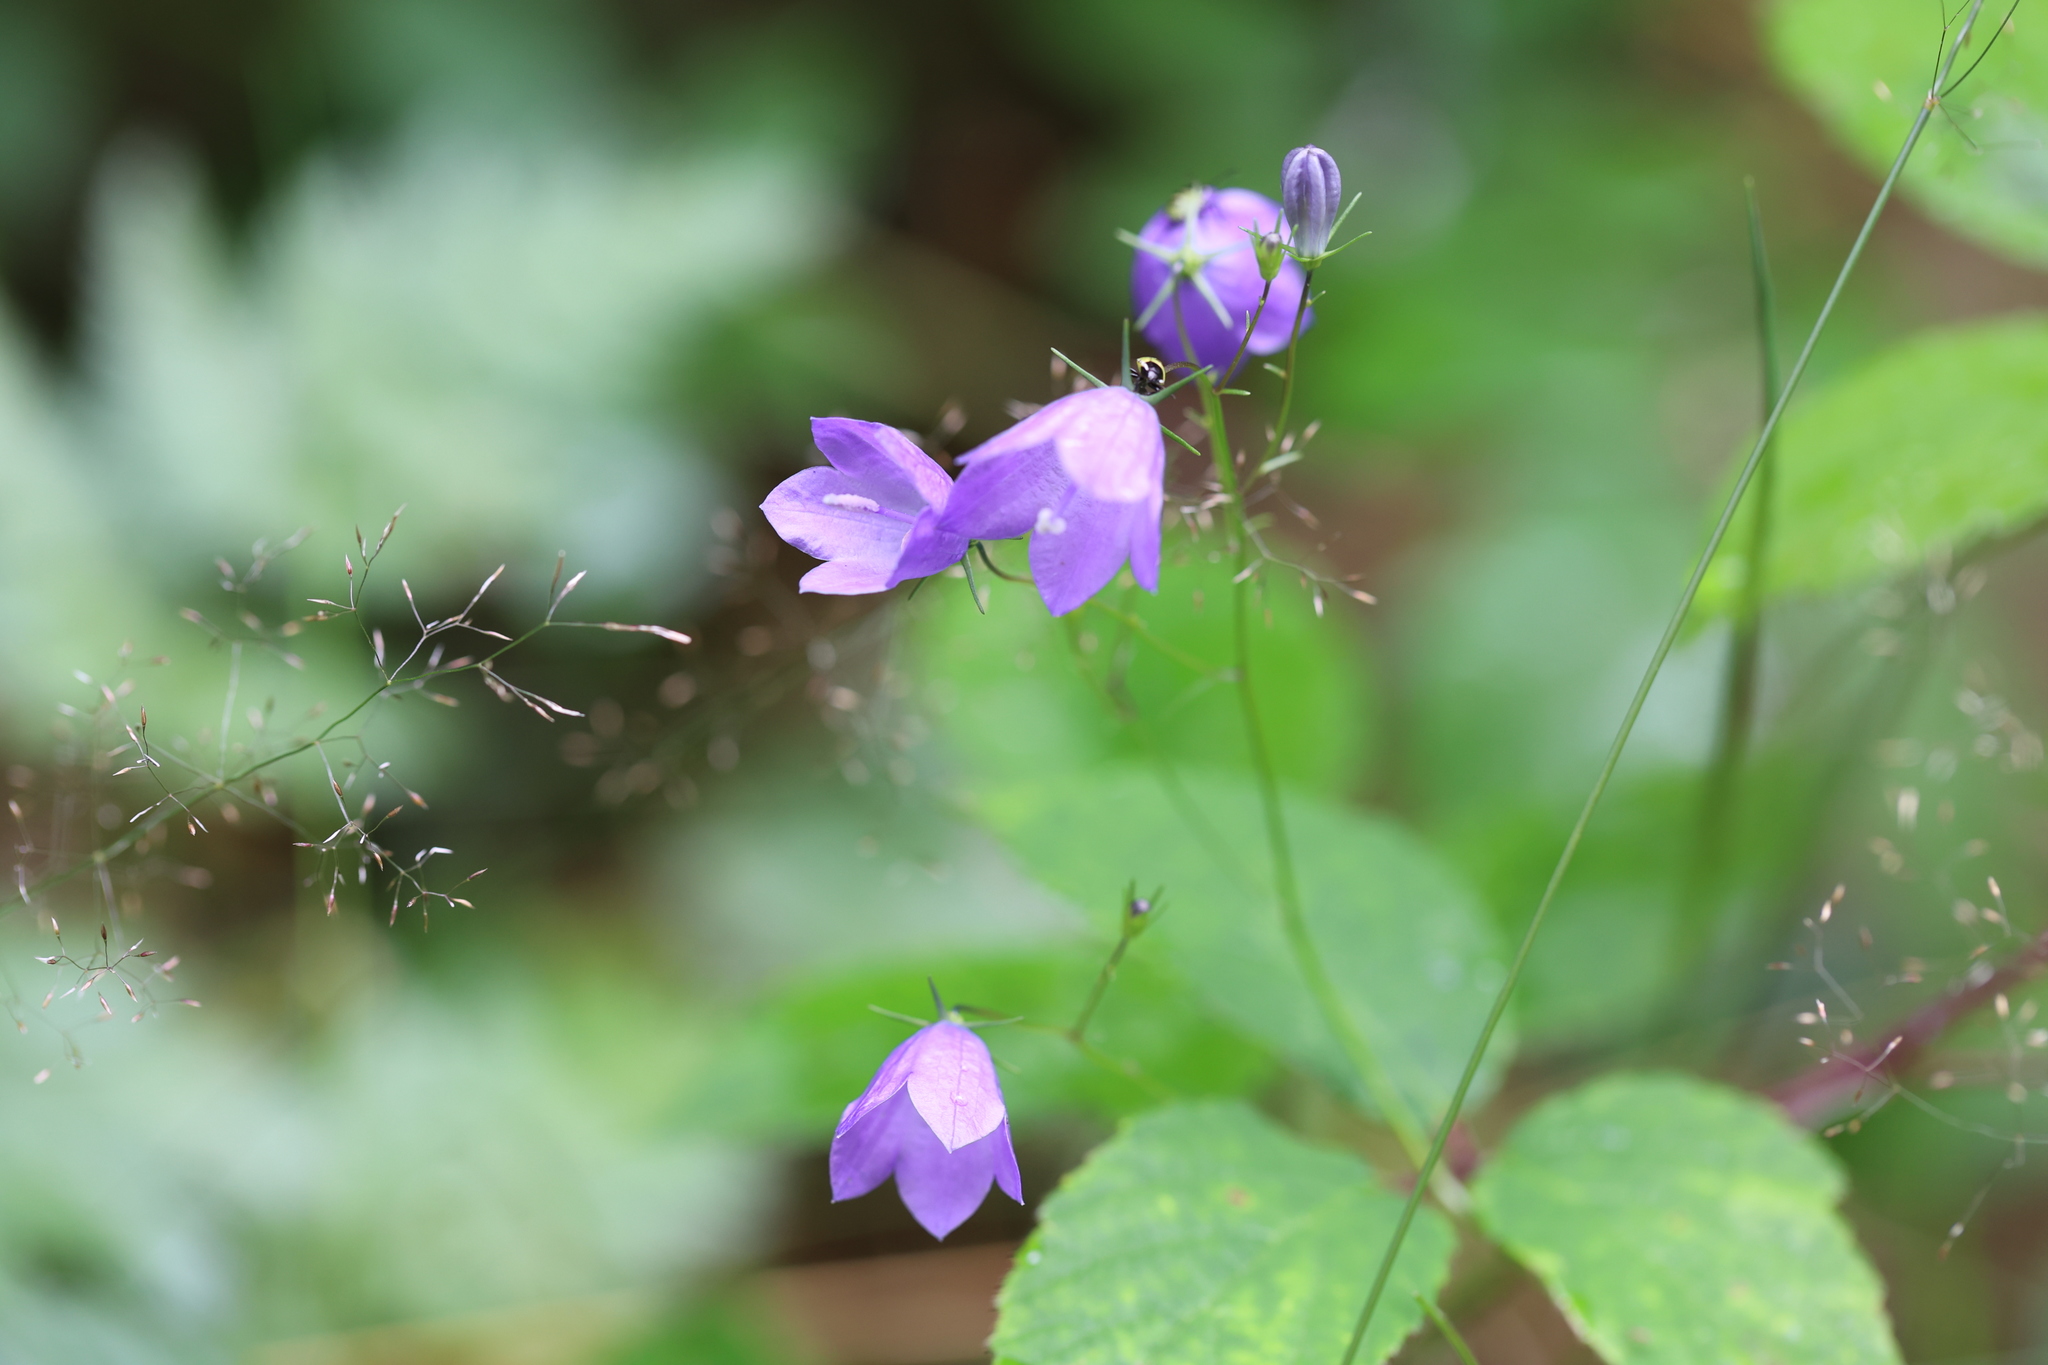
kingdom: Plantae
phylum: Tracheophyta
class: Magnoliopsida
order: Asterales
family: Campanulaceae
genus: Campanula
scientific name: Campanula rotundifolia
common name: Harebell
